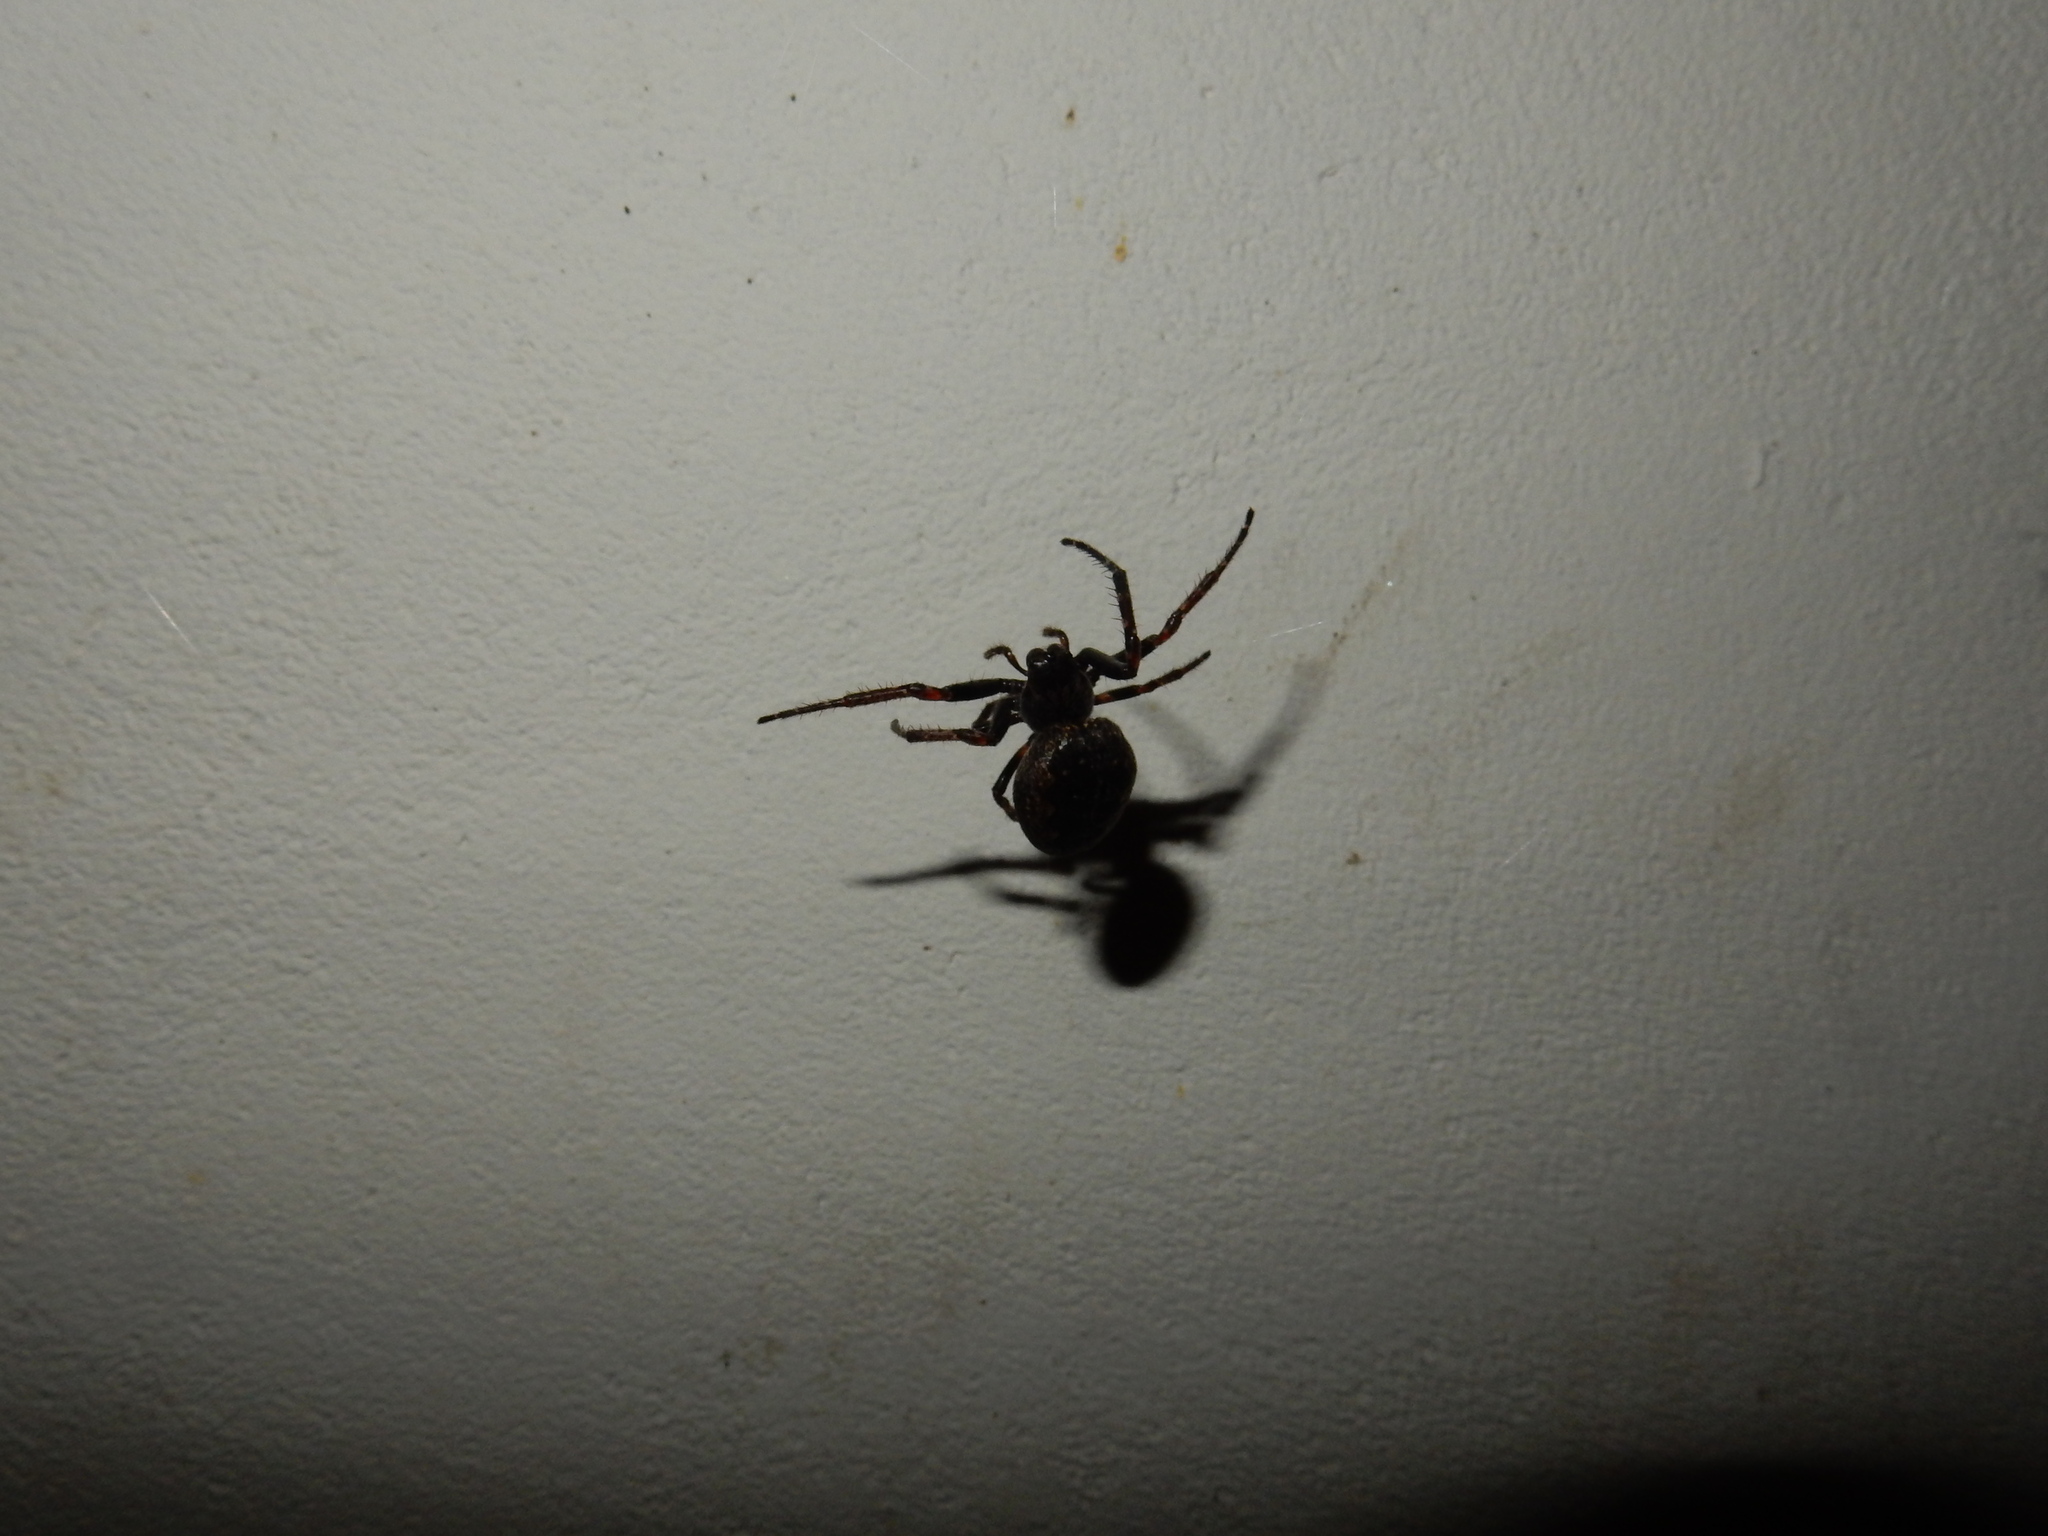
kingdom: Animalia
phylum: Arthropoda
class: Arachnida
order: Araneae
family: Araneidae
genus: Nuctenea
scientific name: Nuctenea umbratica
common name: Toad spider
